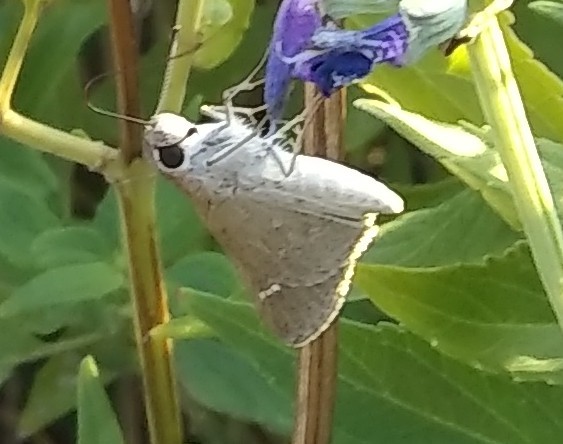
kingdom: Animalia
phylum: Arthropoda
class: Insecta
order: Lepidoptera
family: Hesperiidae
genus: Lerodea
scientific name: Lerodea eufala
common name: Eufala skipper
